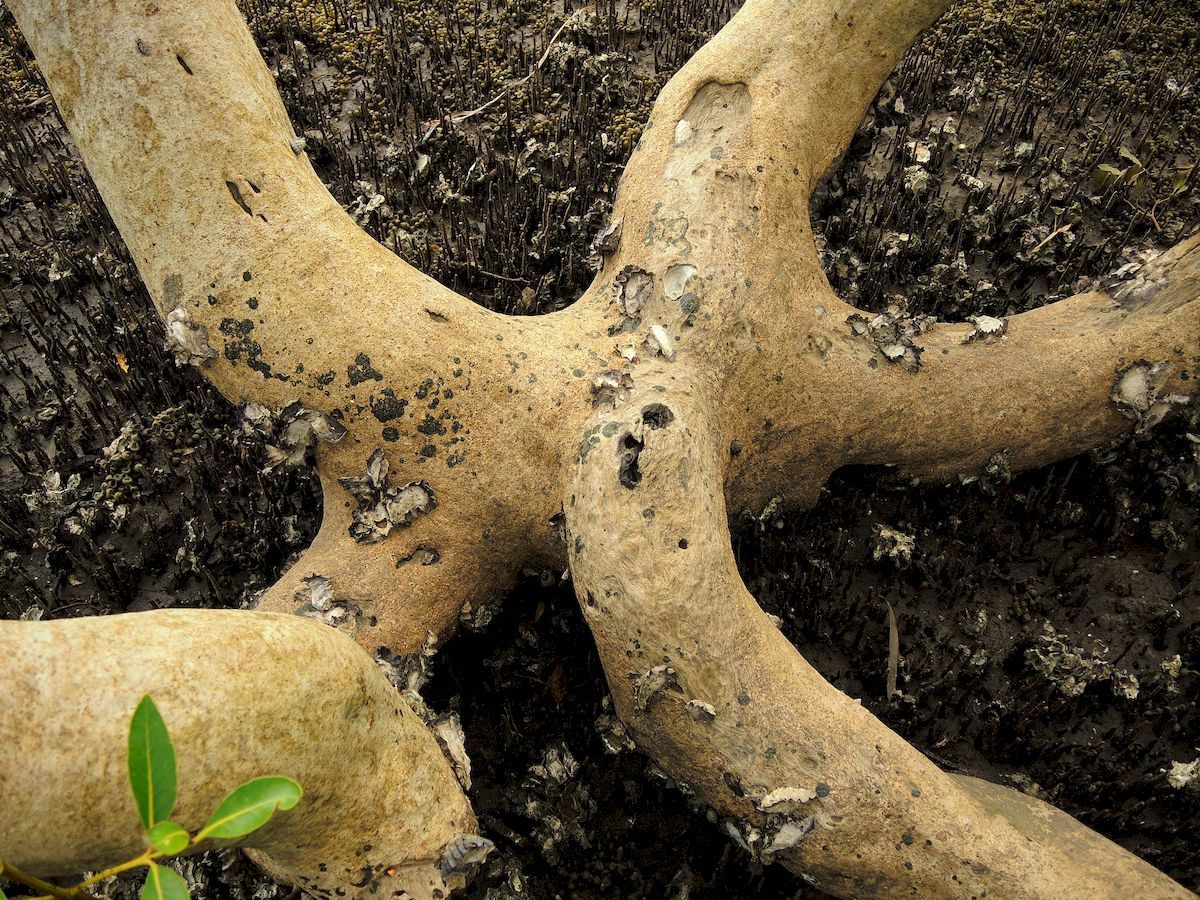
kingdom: Plantae
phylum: Tracheophyta
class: Magnoliopsida
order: Lamiales
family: Acanthaceae
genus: Avicennia
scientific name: Avicennia marina
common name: Gray mangrove
